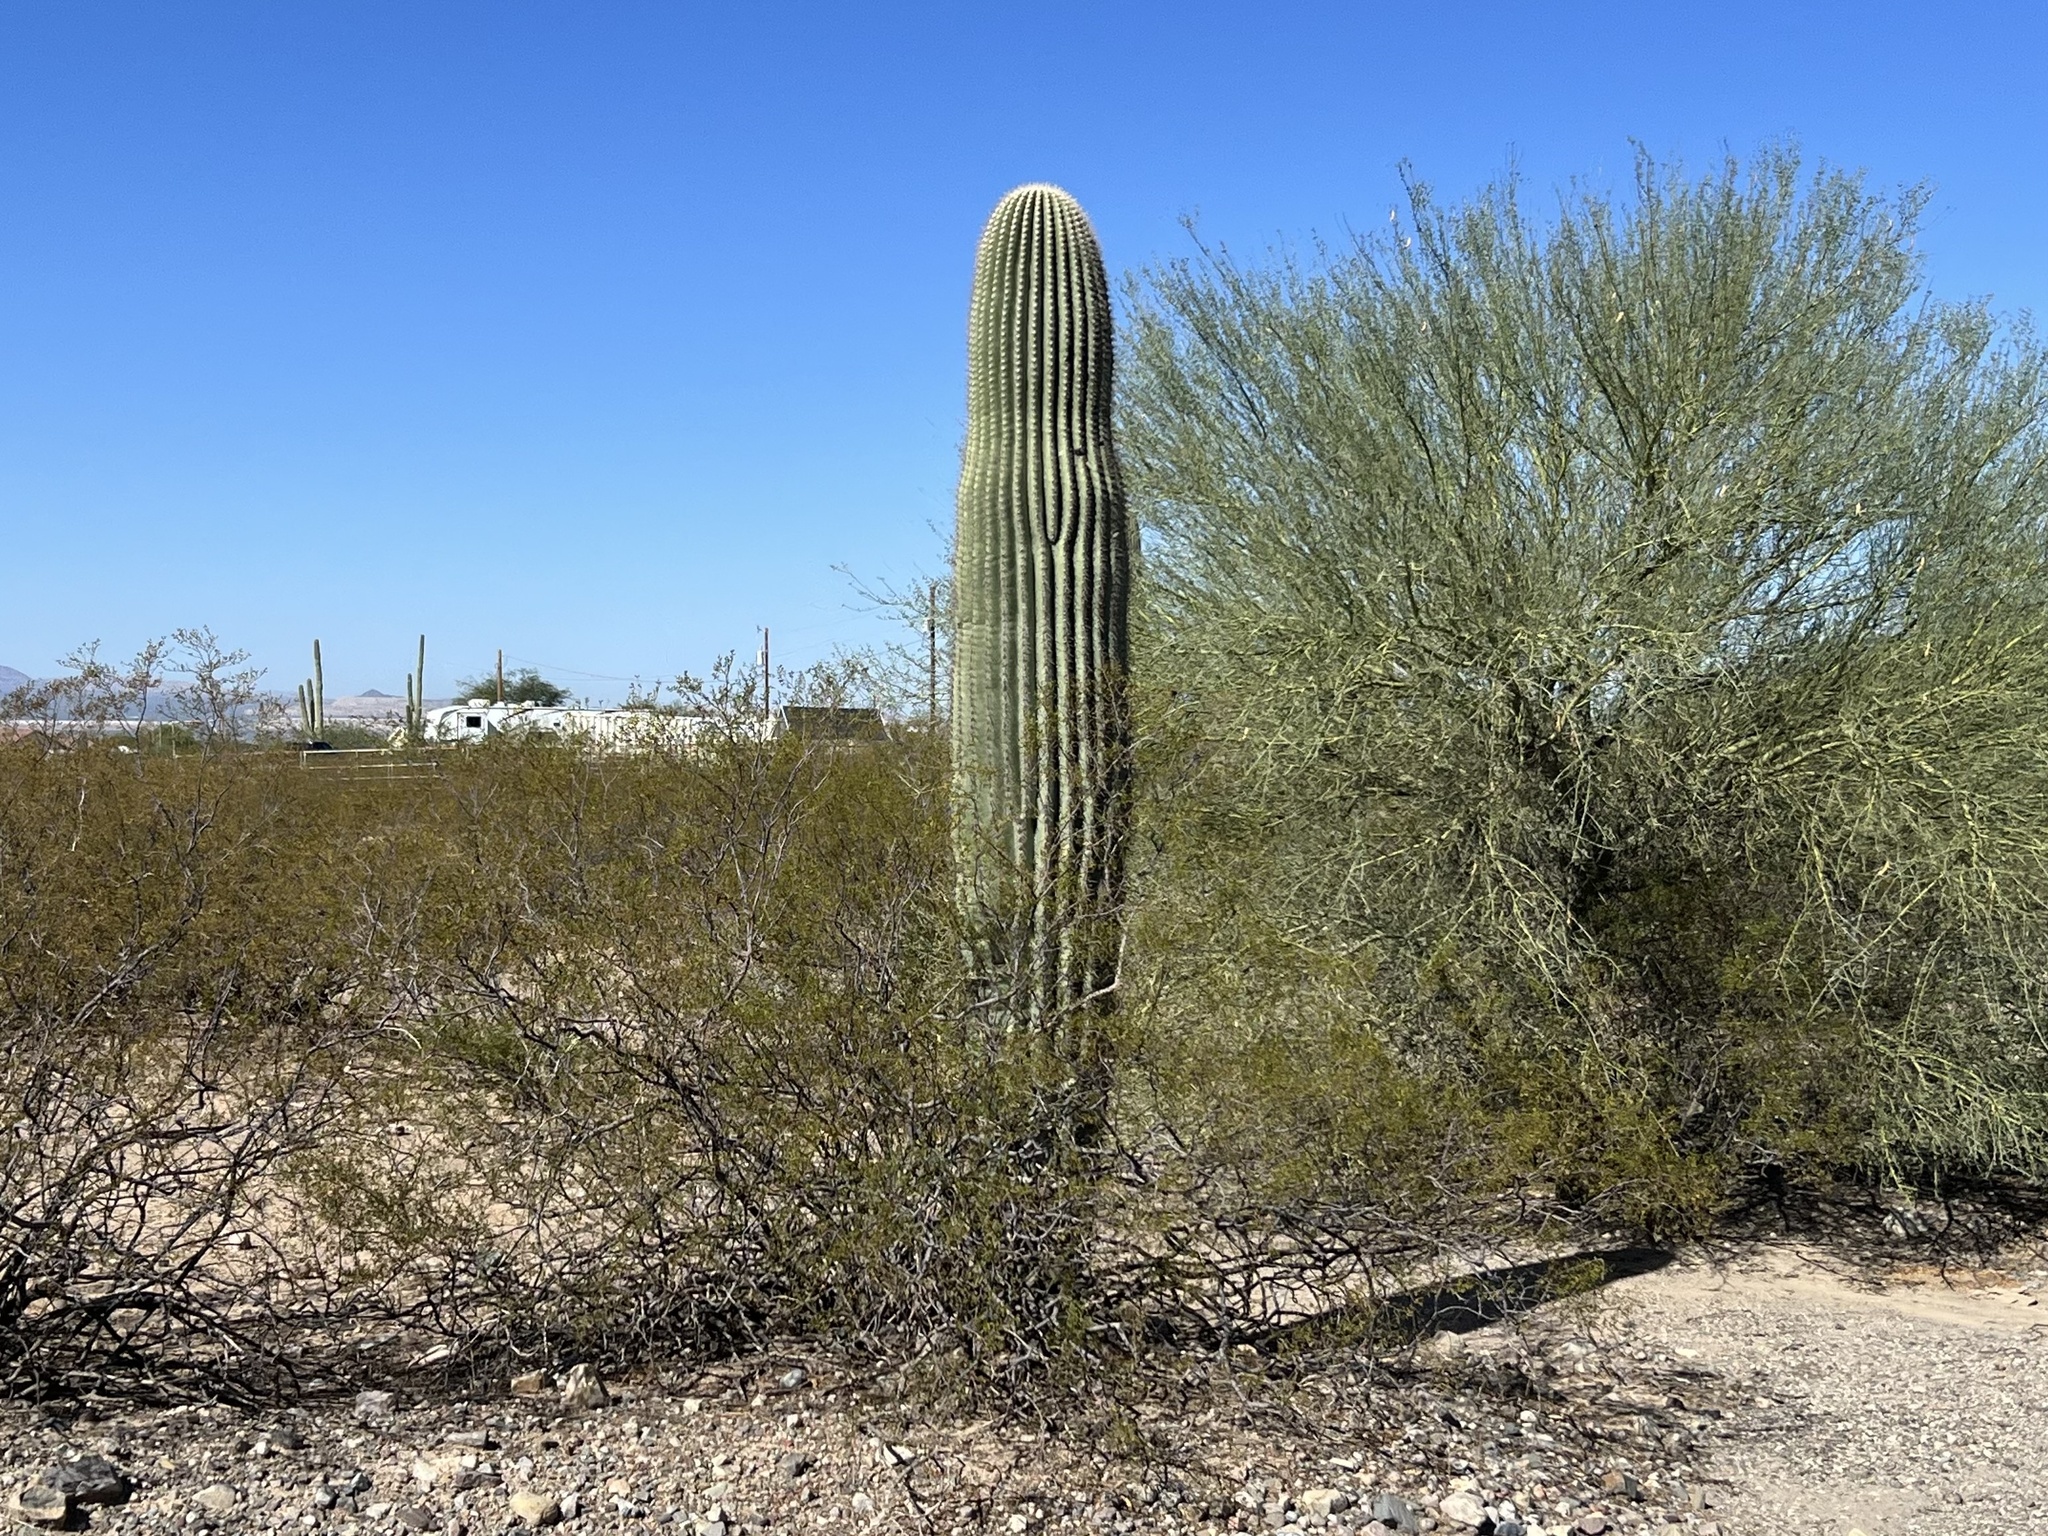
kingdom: Plantae
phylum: Tracheophyta
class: Magnoliopsida
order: Caryophyllales
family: Cactaceae
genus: Carnegiea
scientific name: Carnegiea gigantea
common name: Saguaro
